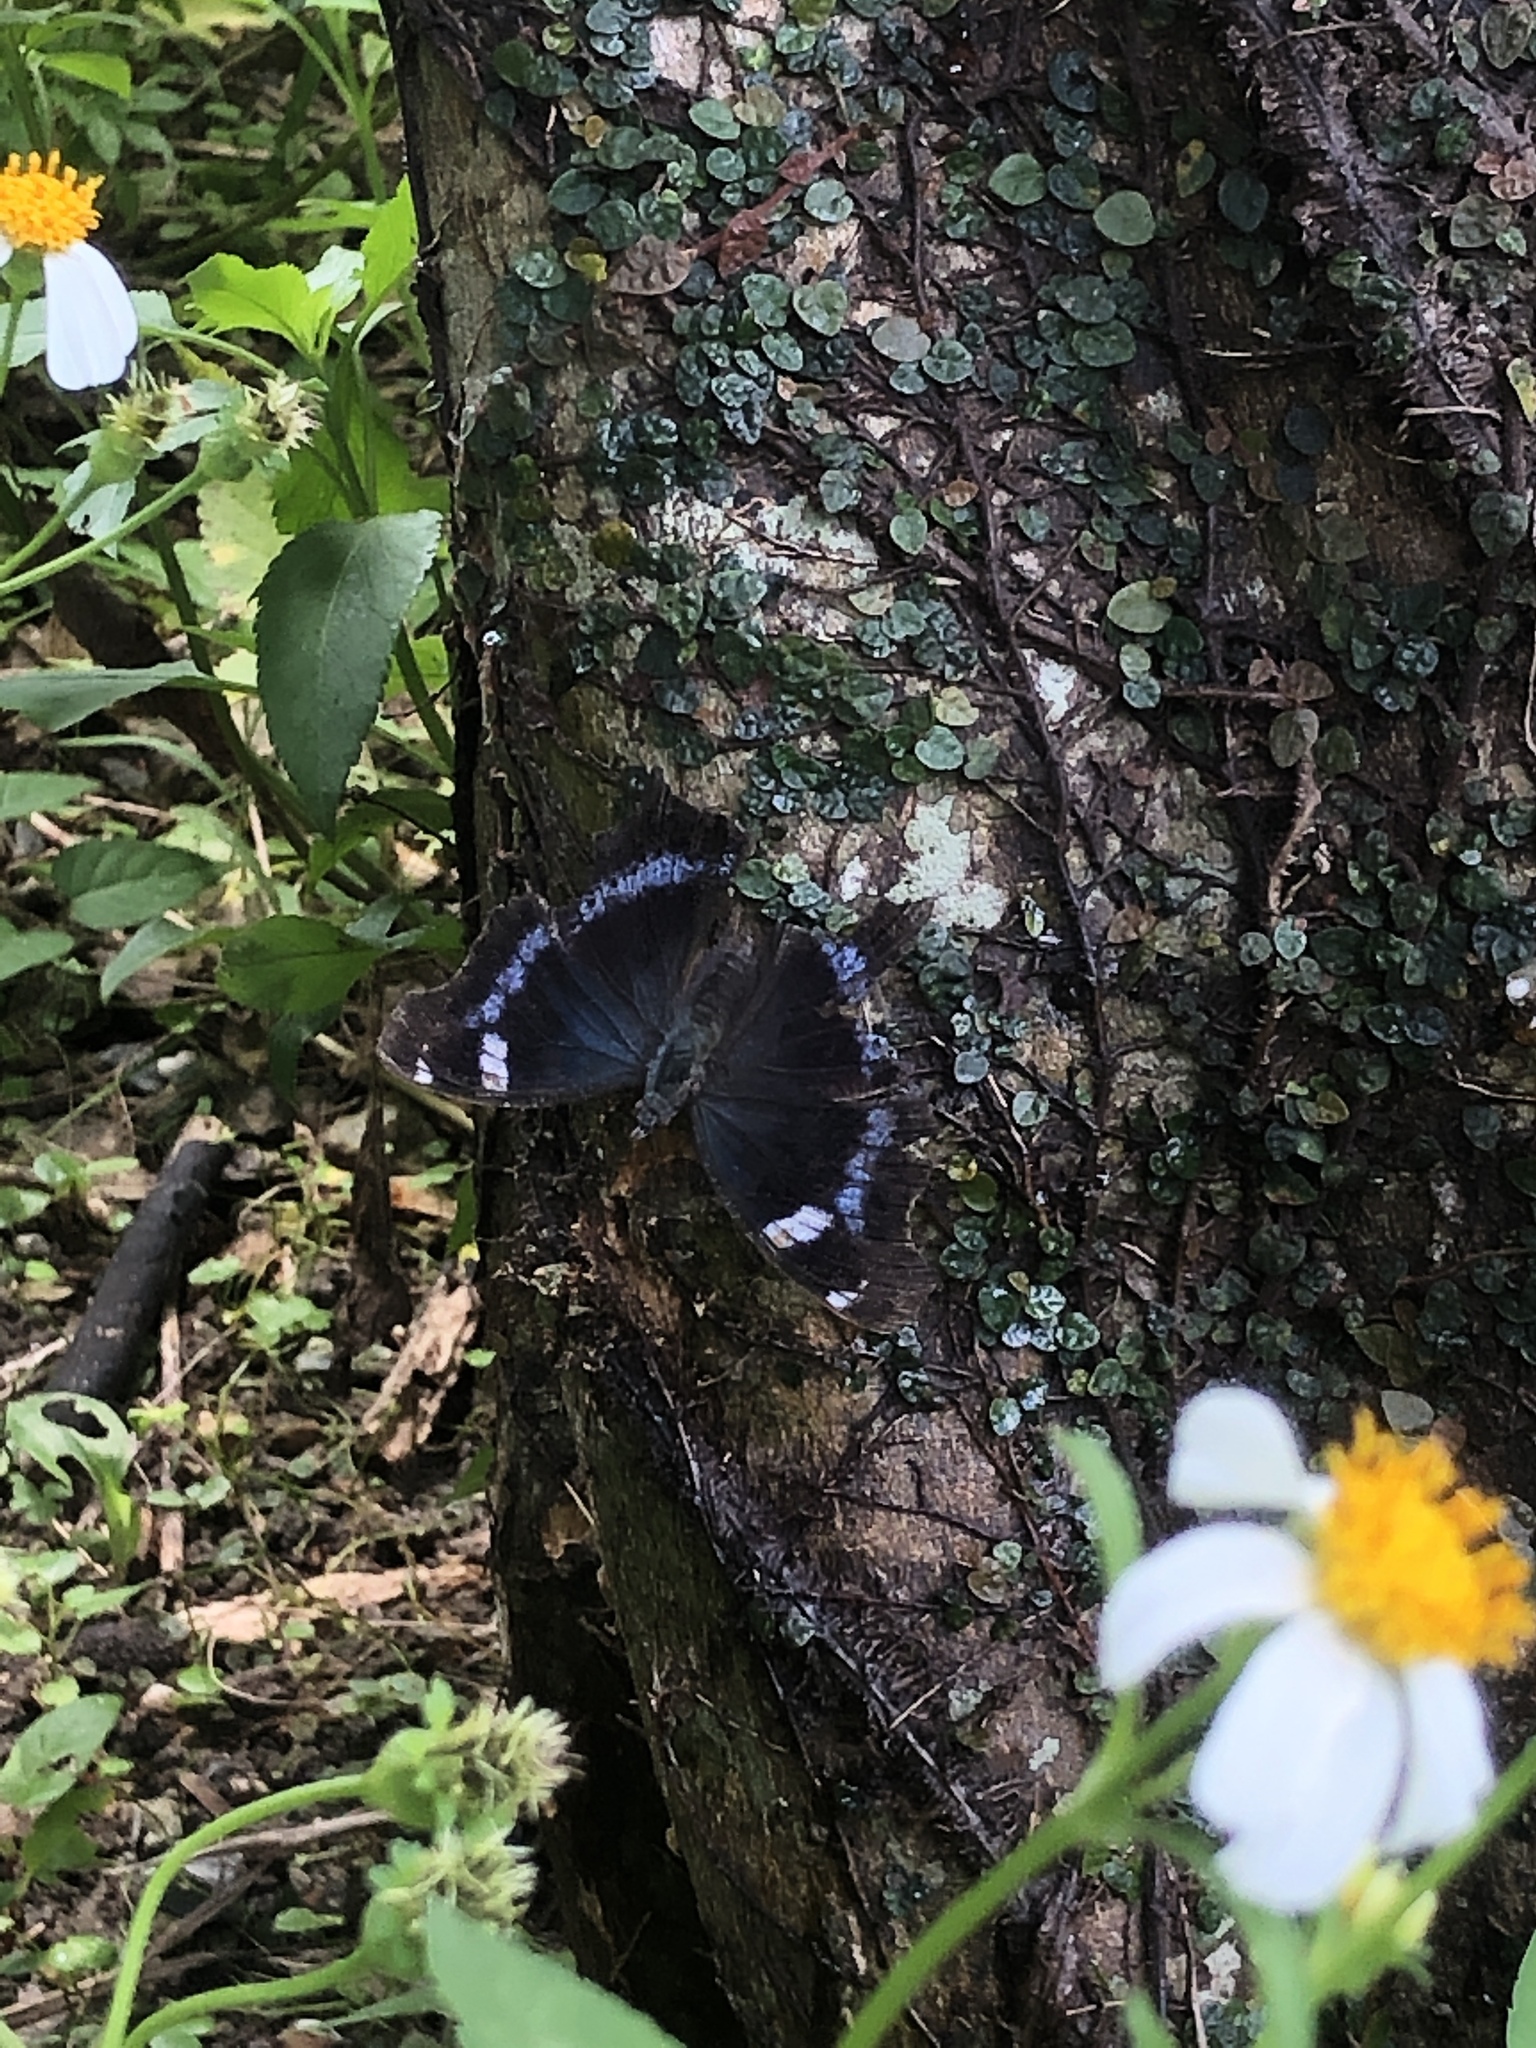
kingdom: Animalia
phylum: Arthropoda
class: Insecta
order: Lepidoptera
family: Nymphalidae
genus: Vanessa
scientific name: Vanessa Kaniska canace
